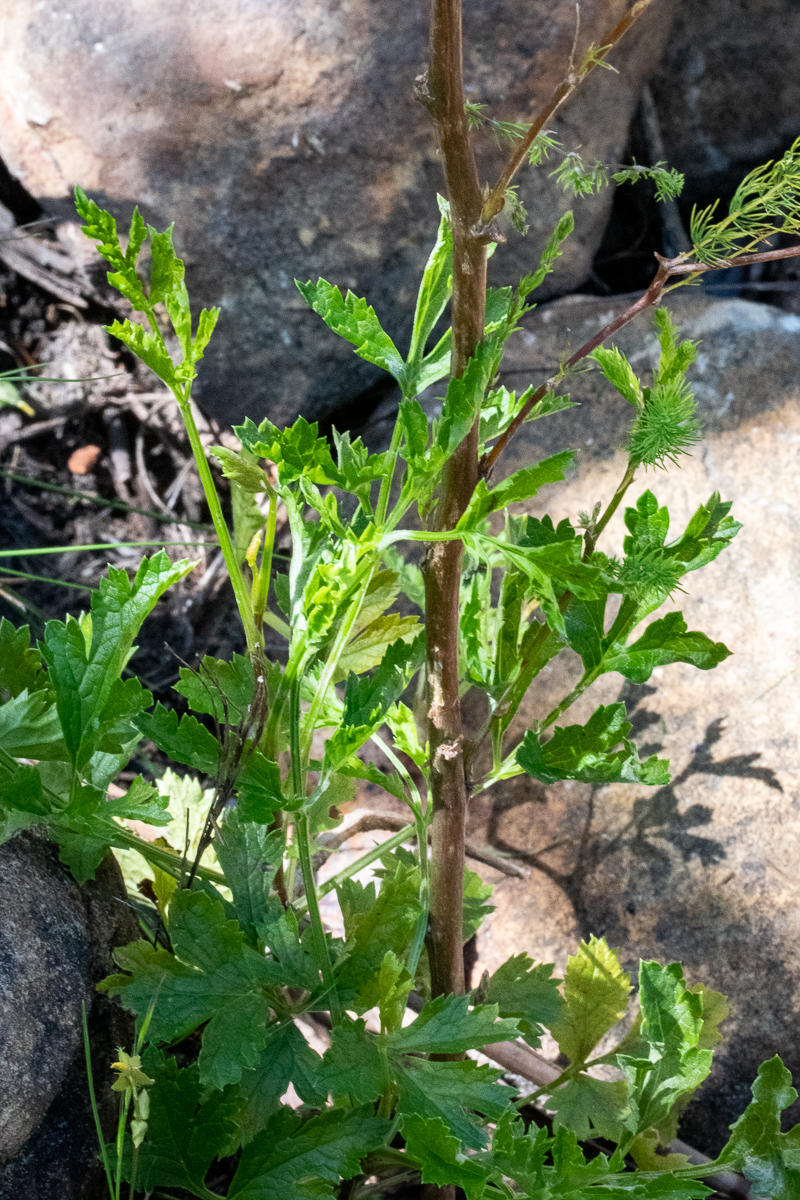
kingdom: Plantae
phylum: Tracheophyta
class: Magnoliopsida
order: Apiales
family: Apiaceae
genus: Notobubon
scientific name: Notobubon galbanum
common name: Blisterbush
